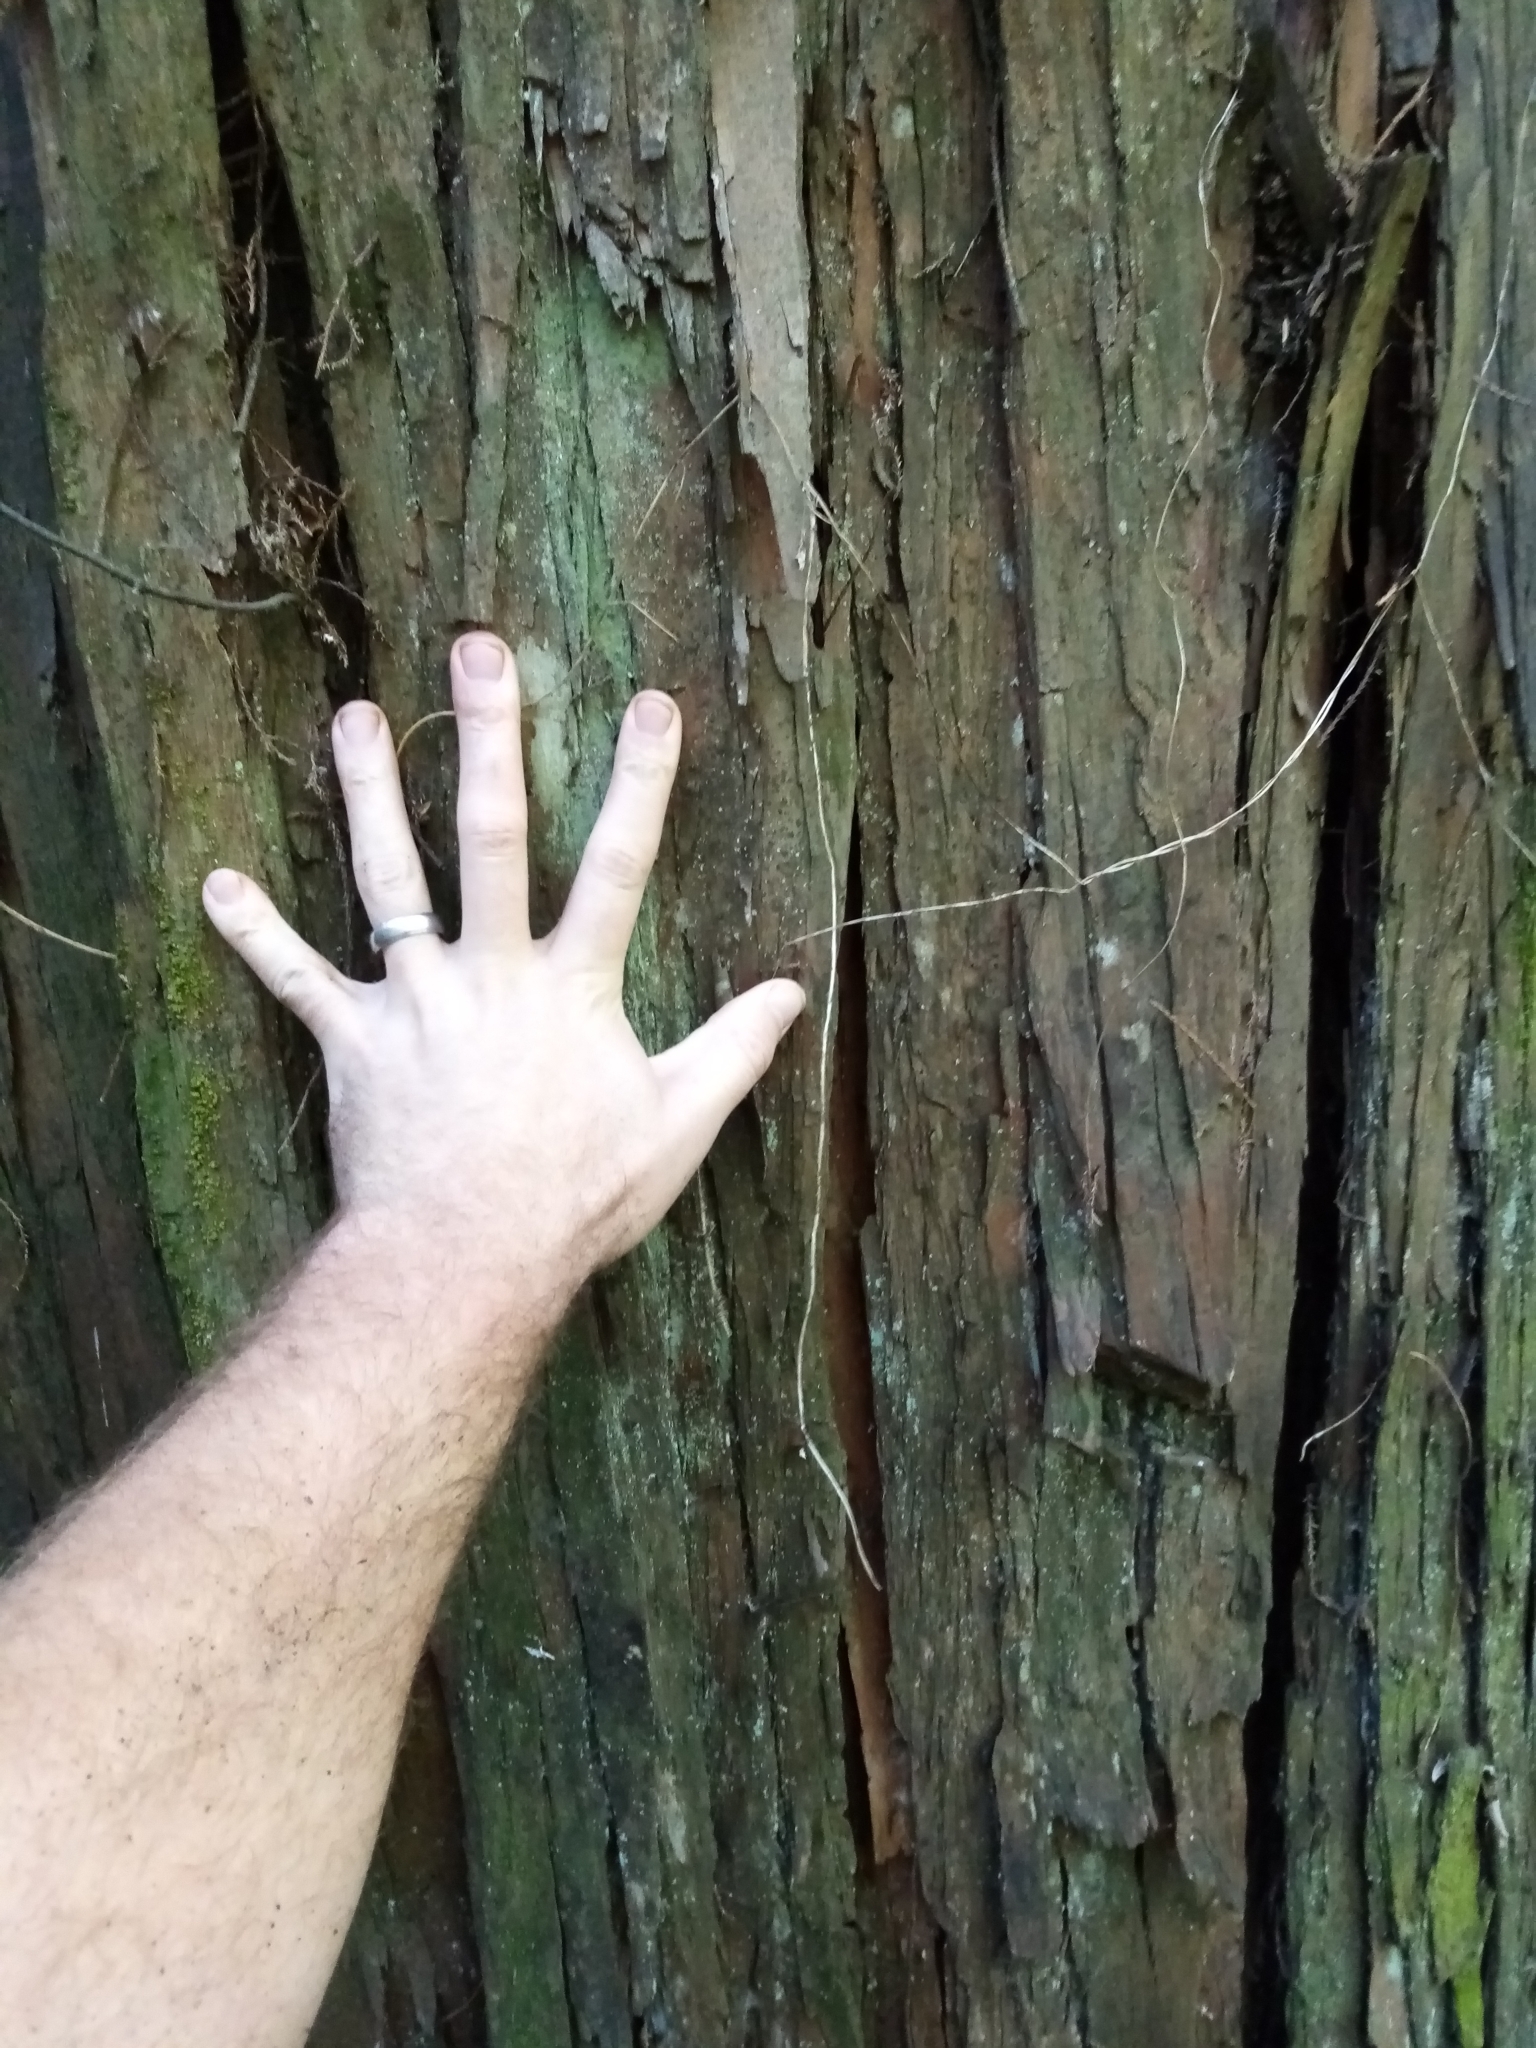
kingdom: Plantae
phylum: Tracheophyta
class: Pinopsida
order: Pinales
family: Podocarpaceae
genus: Podocarpus
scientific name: Podocarpus totara
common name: Totara
